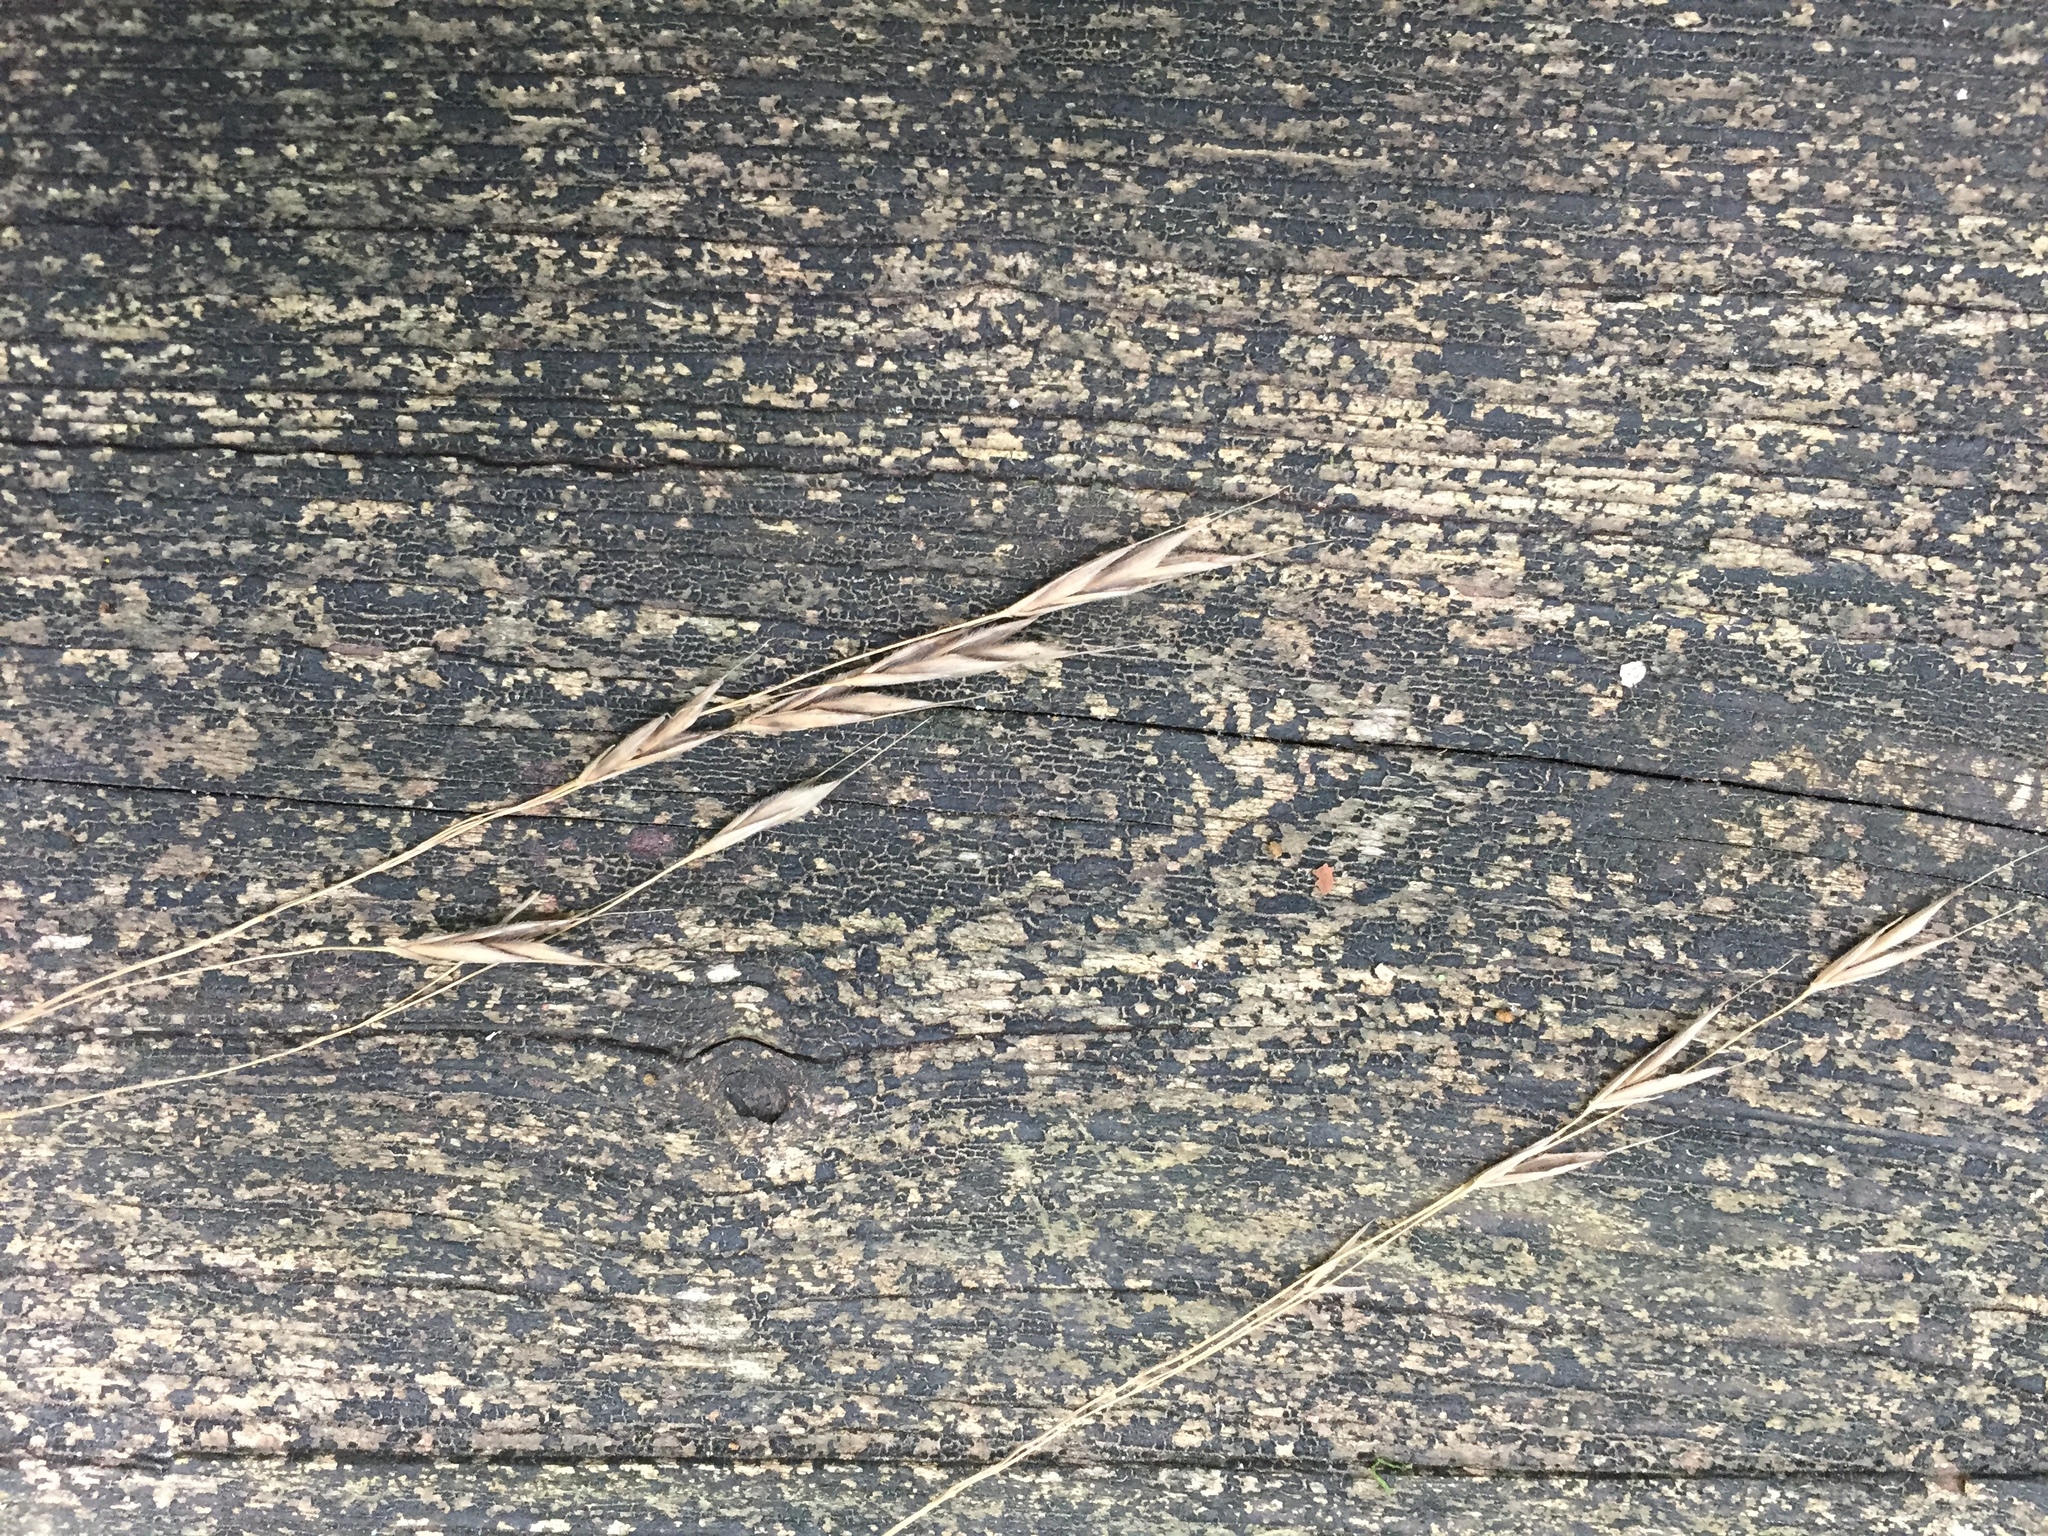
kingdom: Plantae
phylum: Tracheophyta
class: Liliopsida
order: Poales
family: Poaceae
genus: Bromus
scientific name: Bromus pubescens
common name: Hairy wood brome grass
